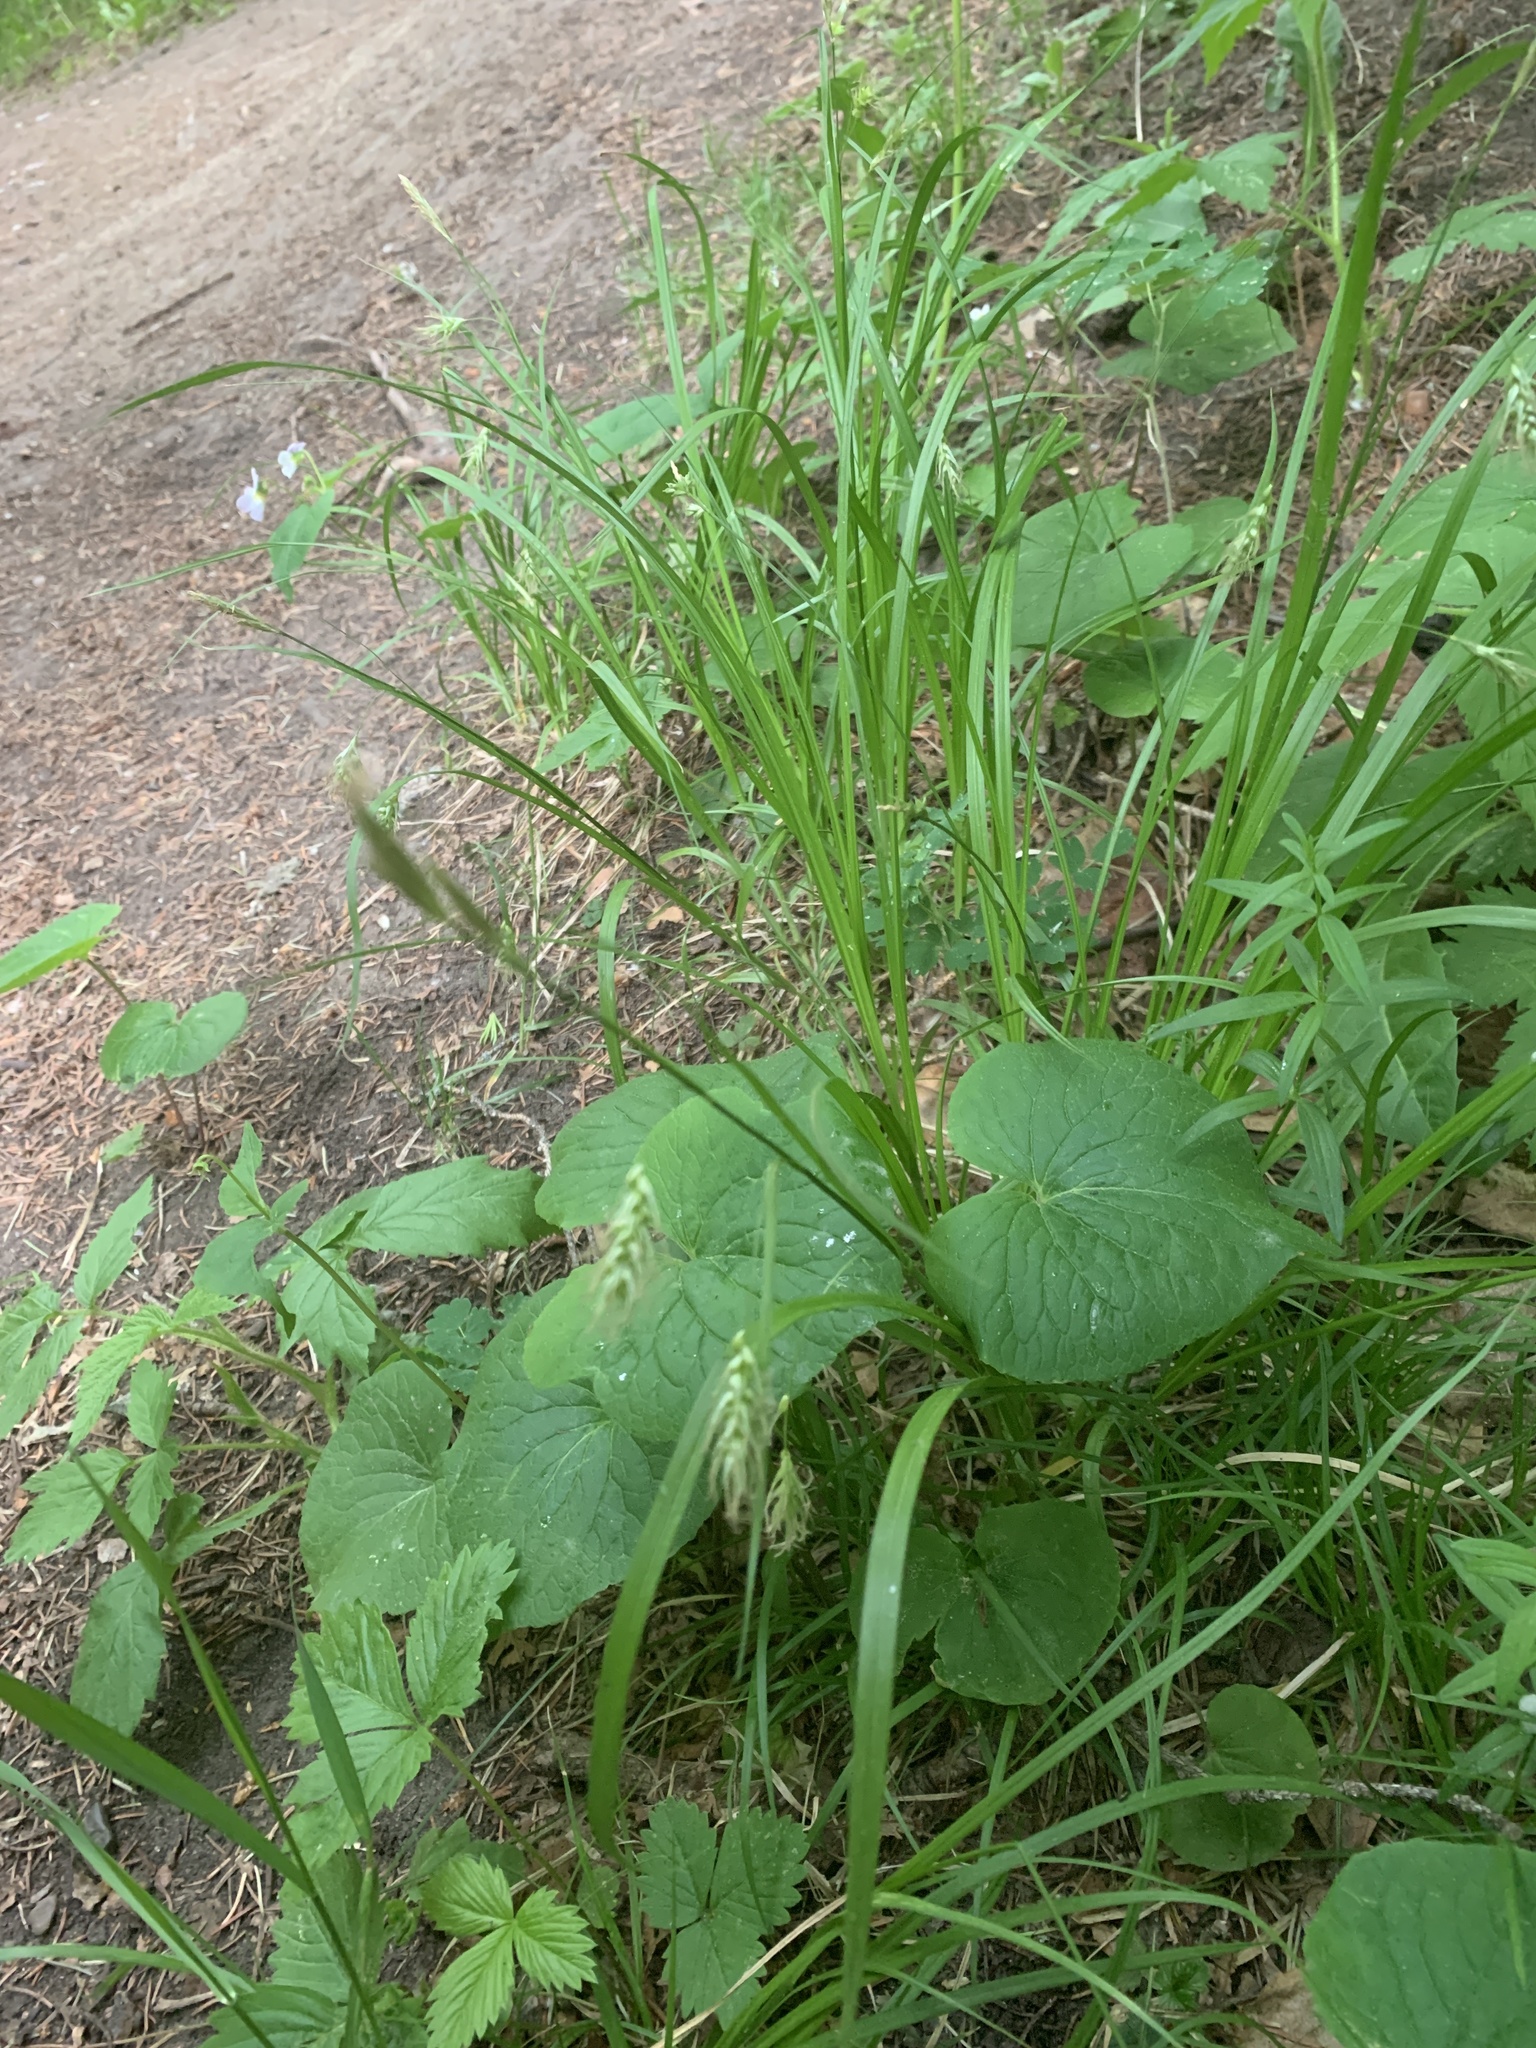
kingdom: Plantae
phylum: Tracheophyta
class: Liliopsida
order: Poales
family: Cyperaceae
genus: Carex
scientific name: Carex sprengelii
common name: Long-beaked sedge
